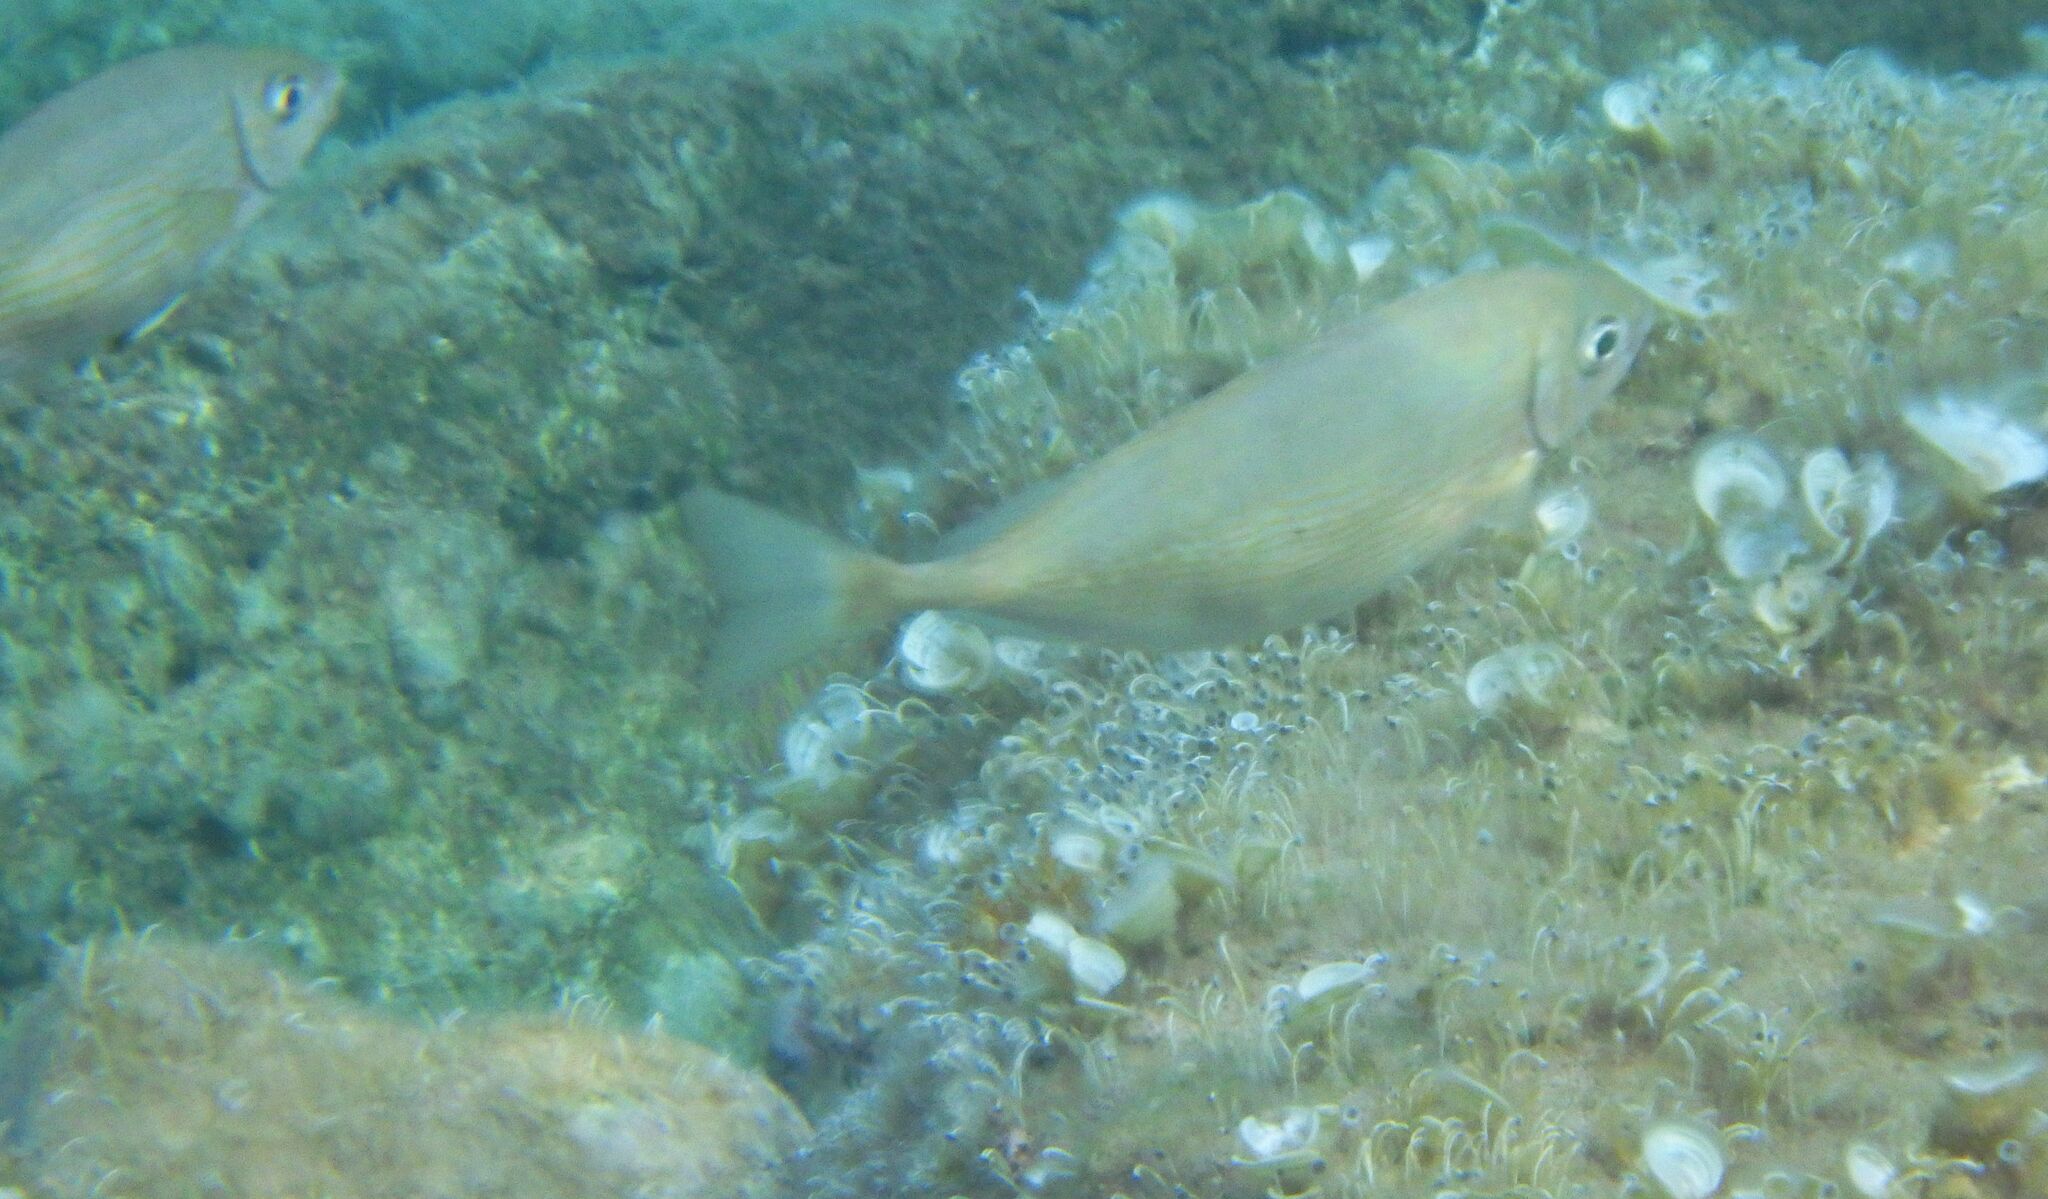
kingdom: Animalia
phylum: Chordata
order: Perciformes
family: Siganidae
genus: Siganus
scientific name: Siganus rivulatus
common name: Marbled spinefoot
